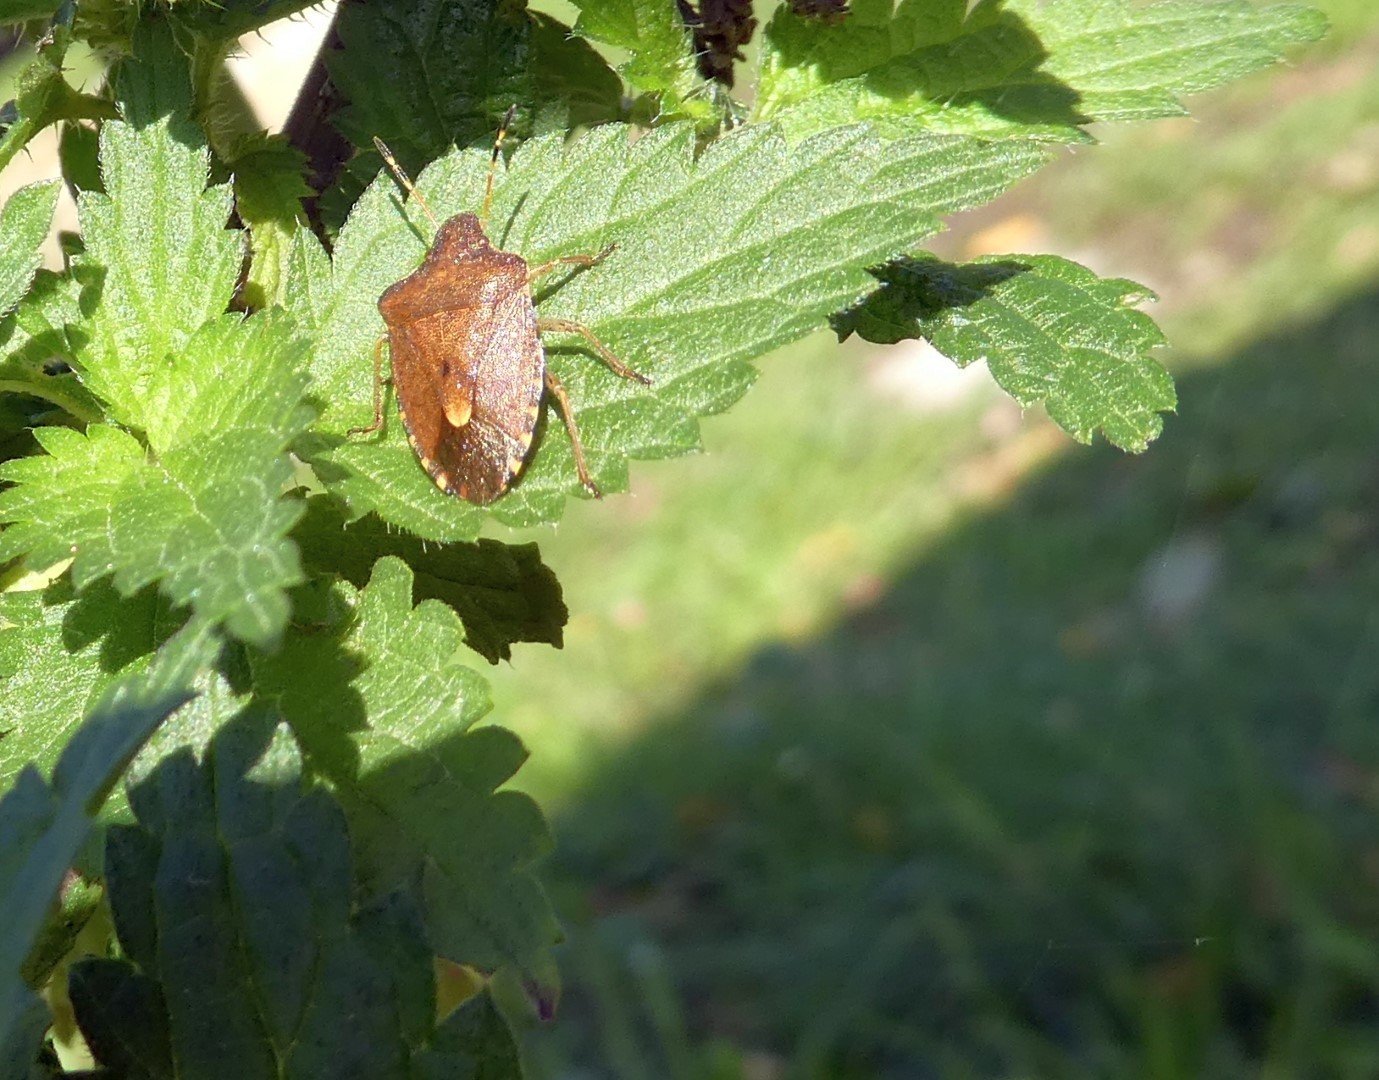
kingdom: Animalia
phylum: Arthropoda
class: Insecta
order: Hemiptera
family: Pentatomidae
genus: Holcostethus
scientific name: Holcostethus strictus
